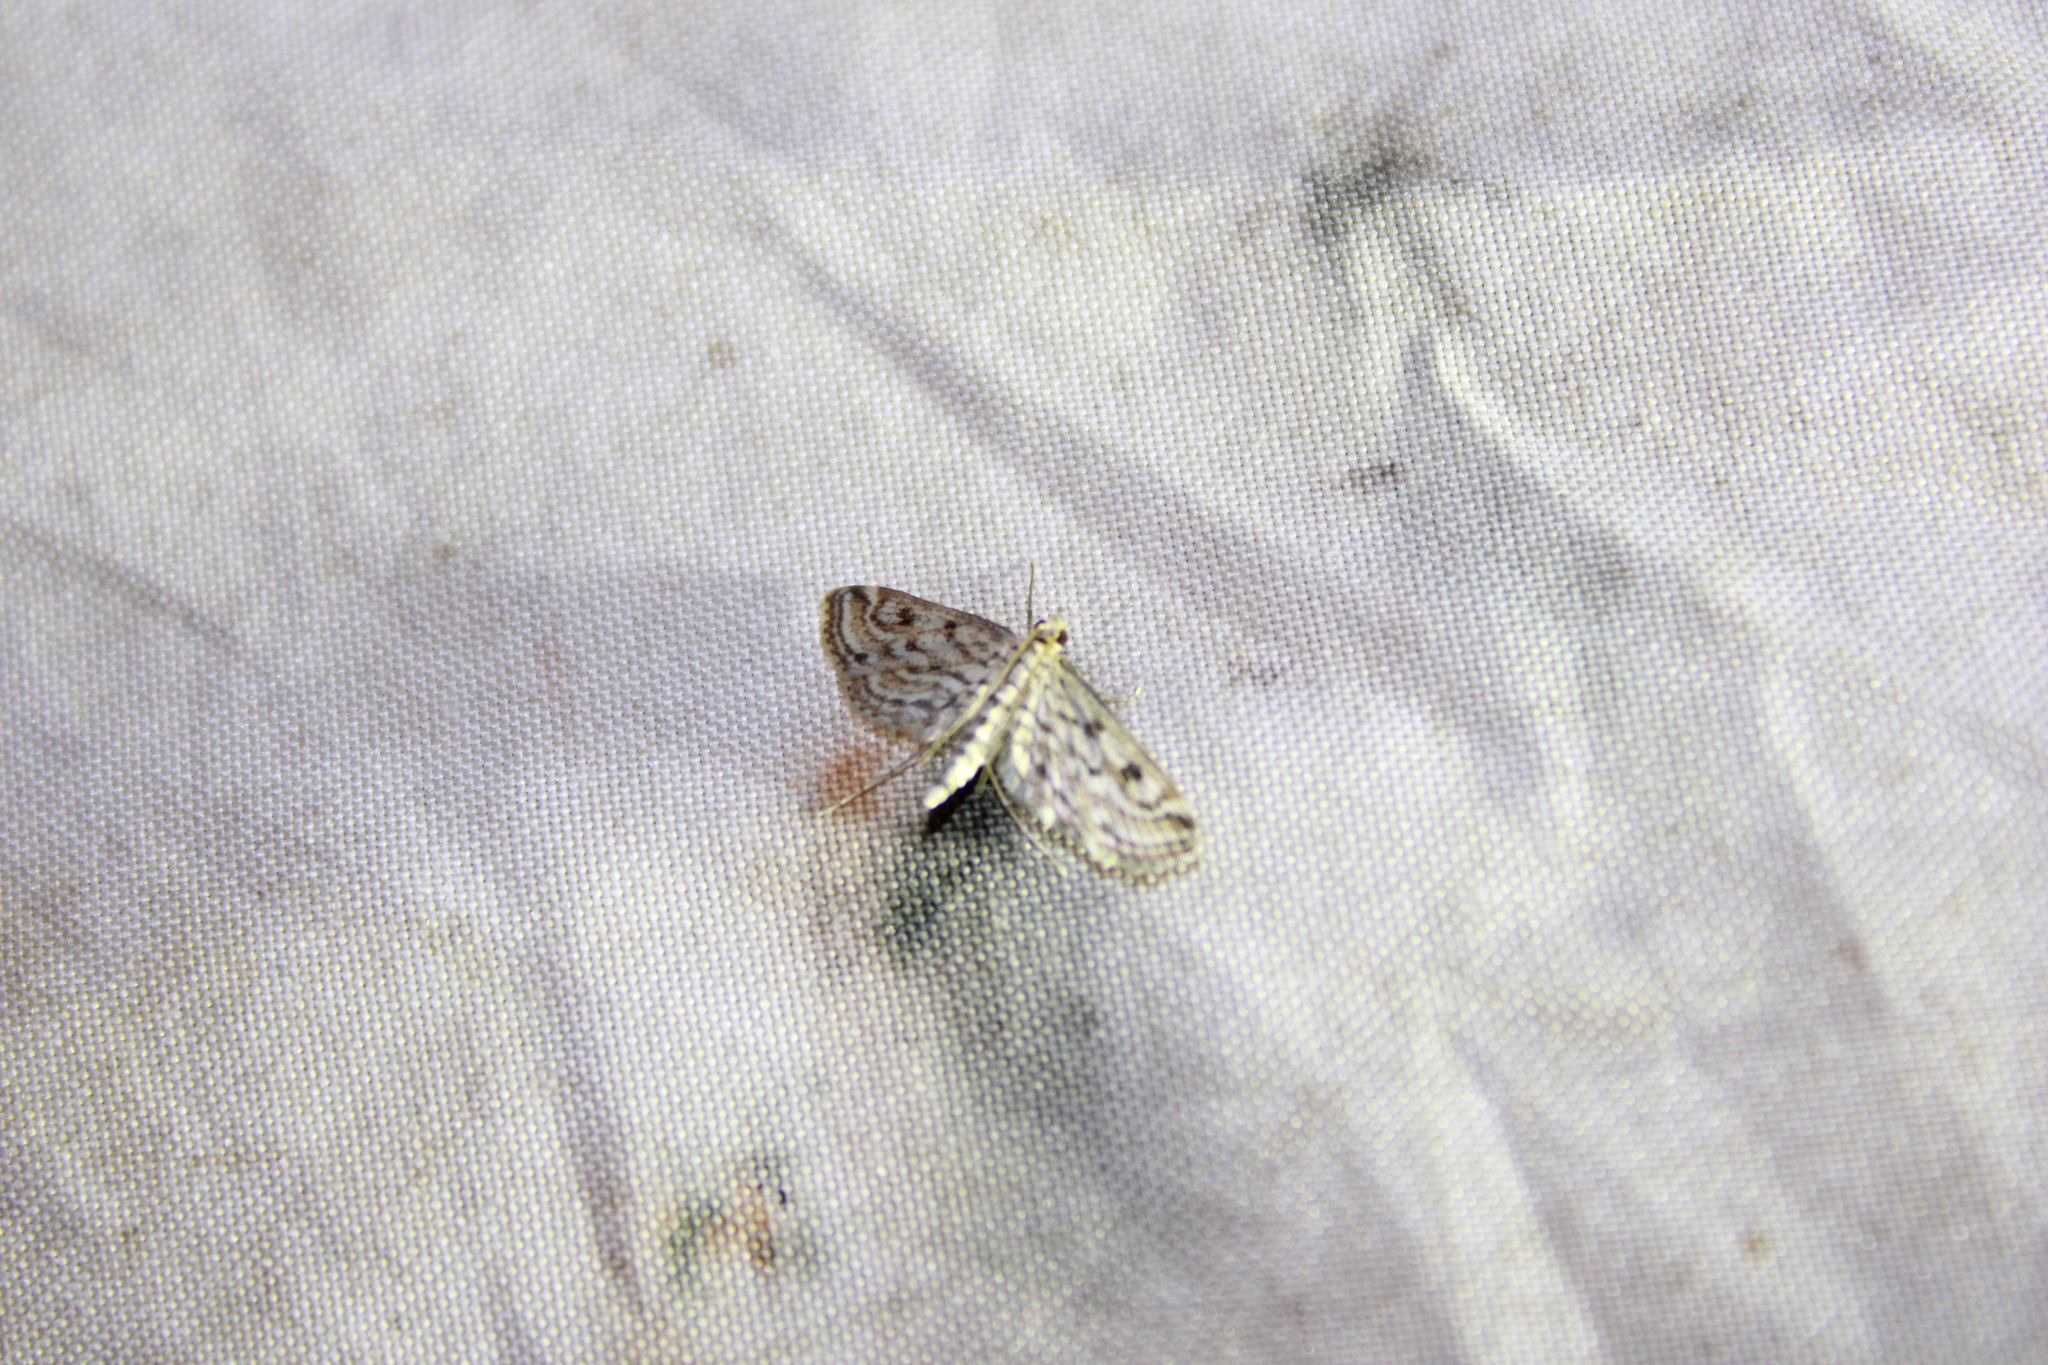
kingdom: Animalia
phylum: Arthropoda
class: Insecta
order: Lepidoptera
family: Crambidae
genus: Parapoynx
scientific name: Parapoynx allionealis
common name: Bladderwort casemaker
